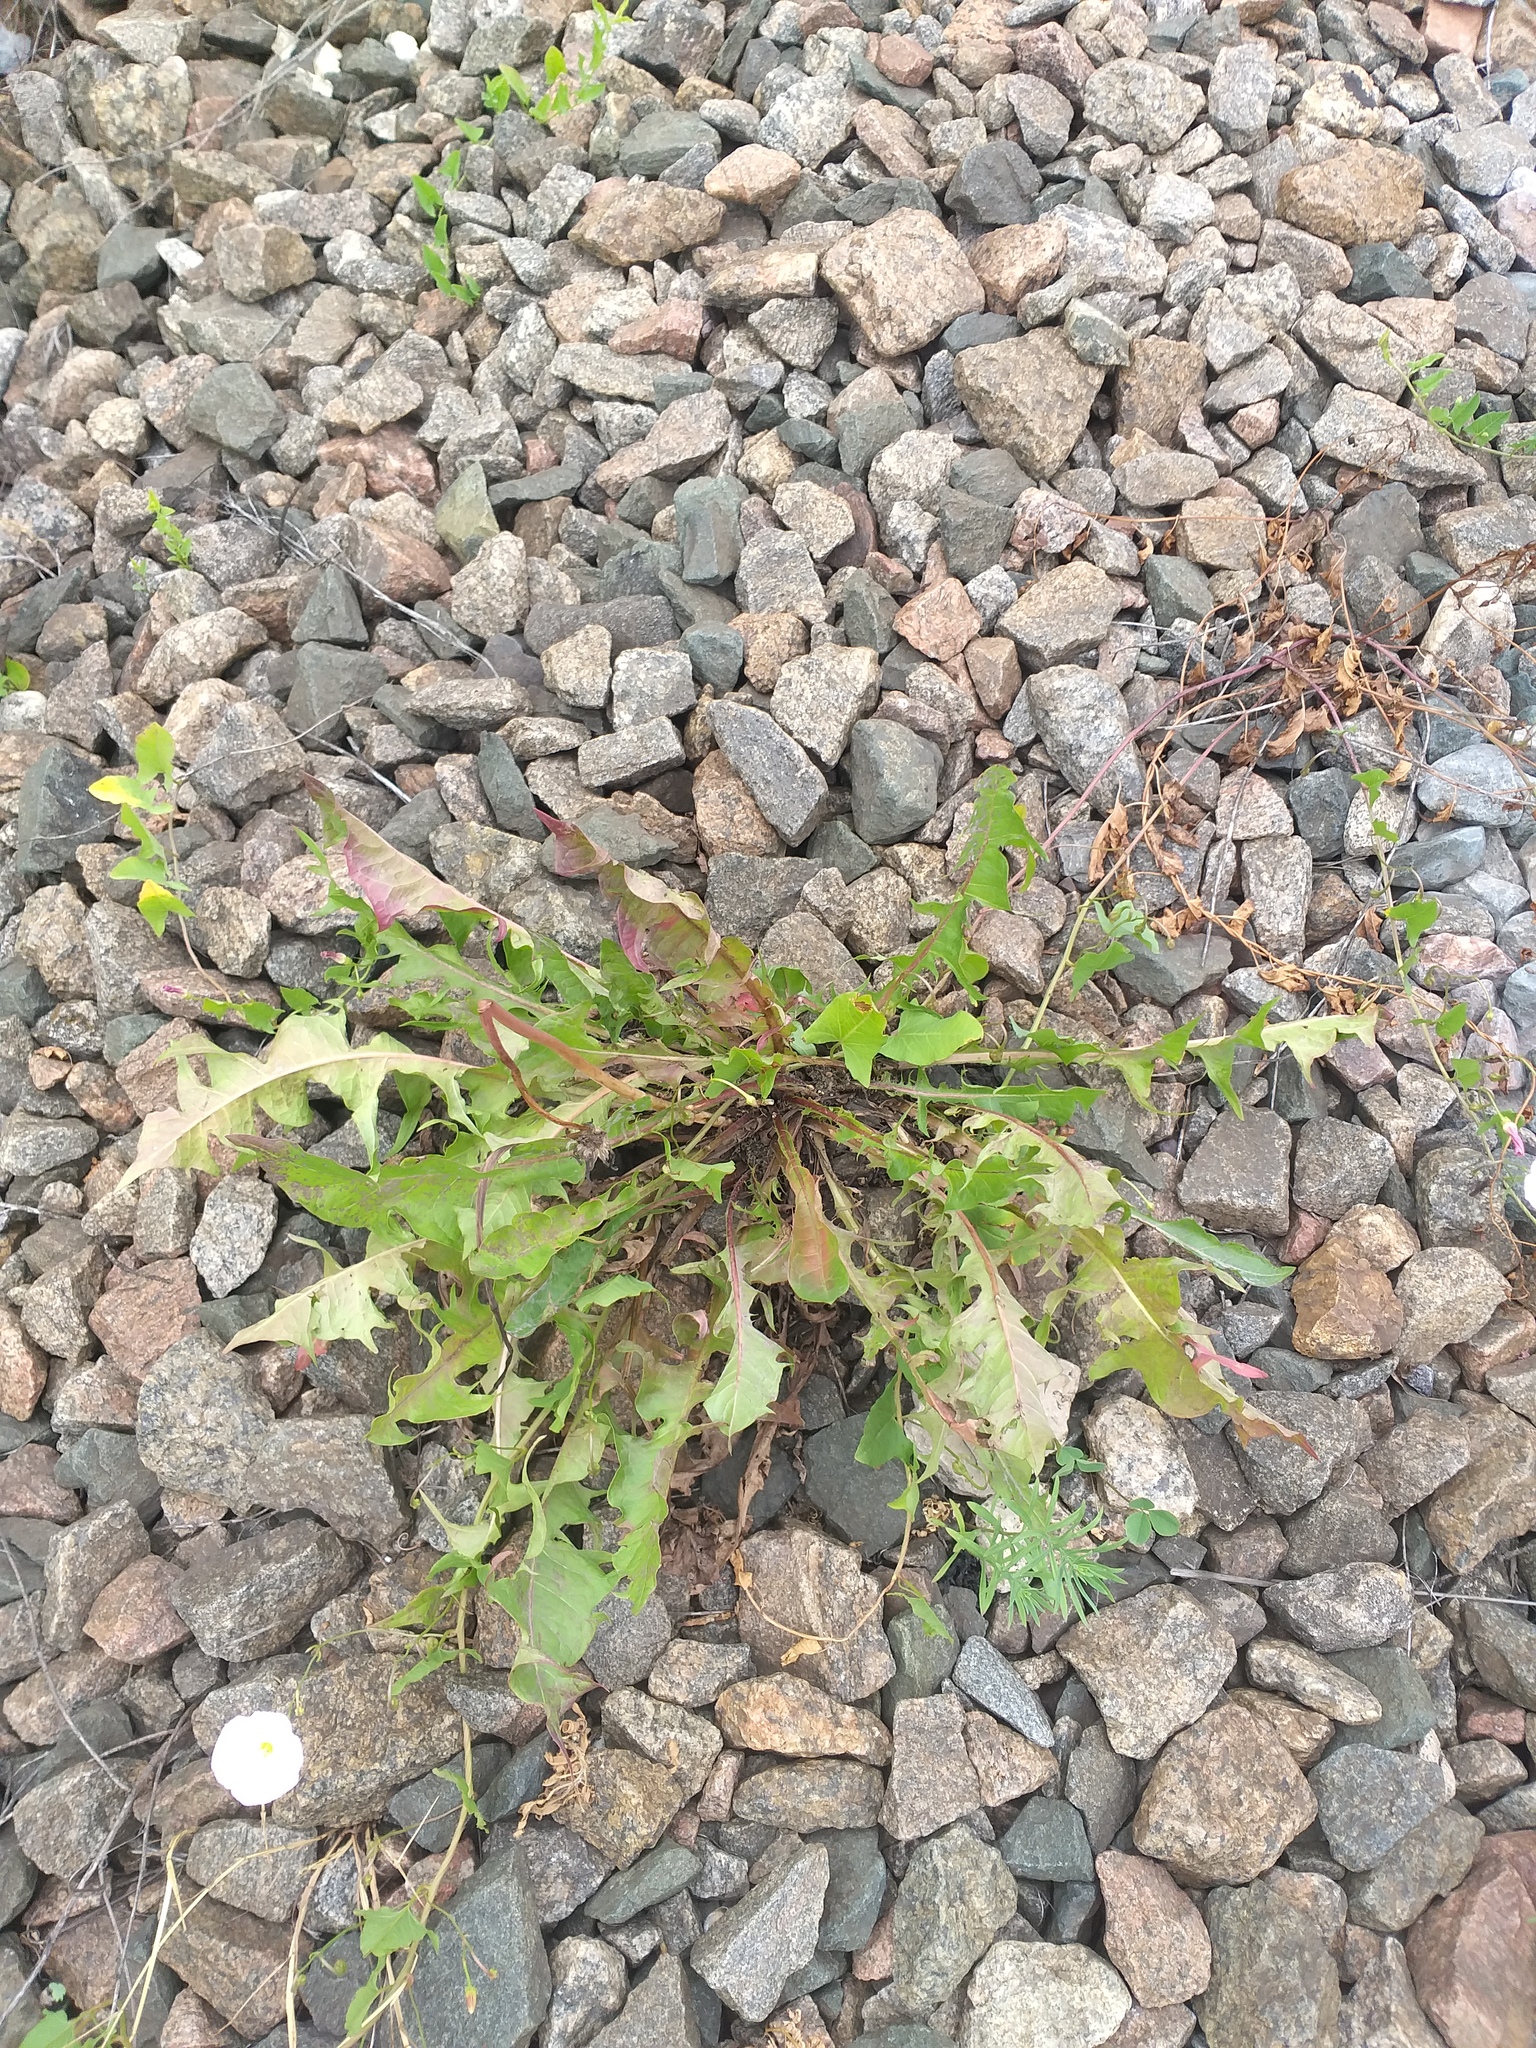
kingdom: Plantae
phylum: Tracheophyta
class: Magnoliopsida
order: Asterales
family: Asteraceae
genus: Taraxacum
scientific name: Taraxacum officinale
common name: Common dandelion
